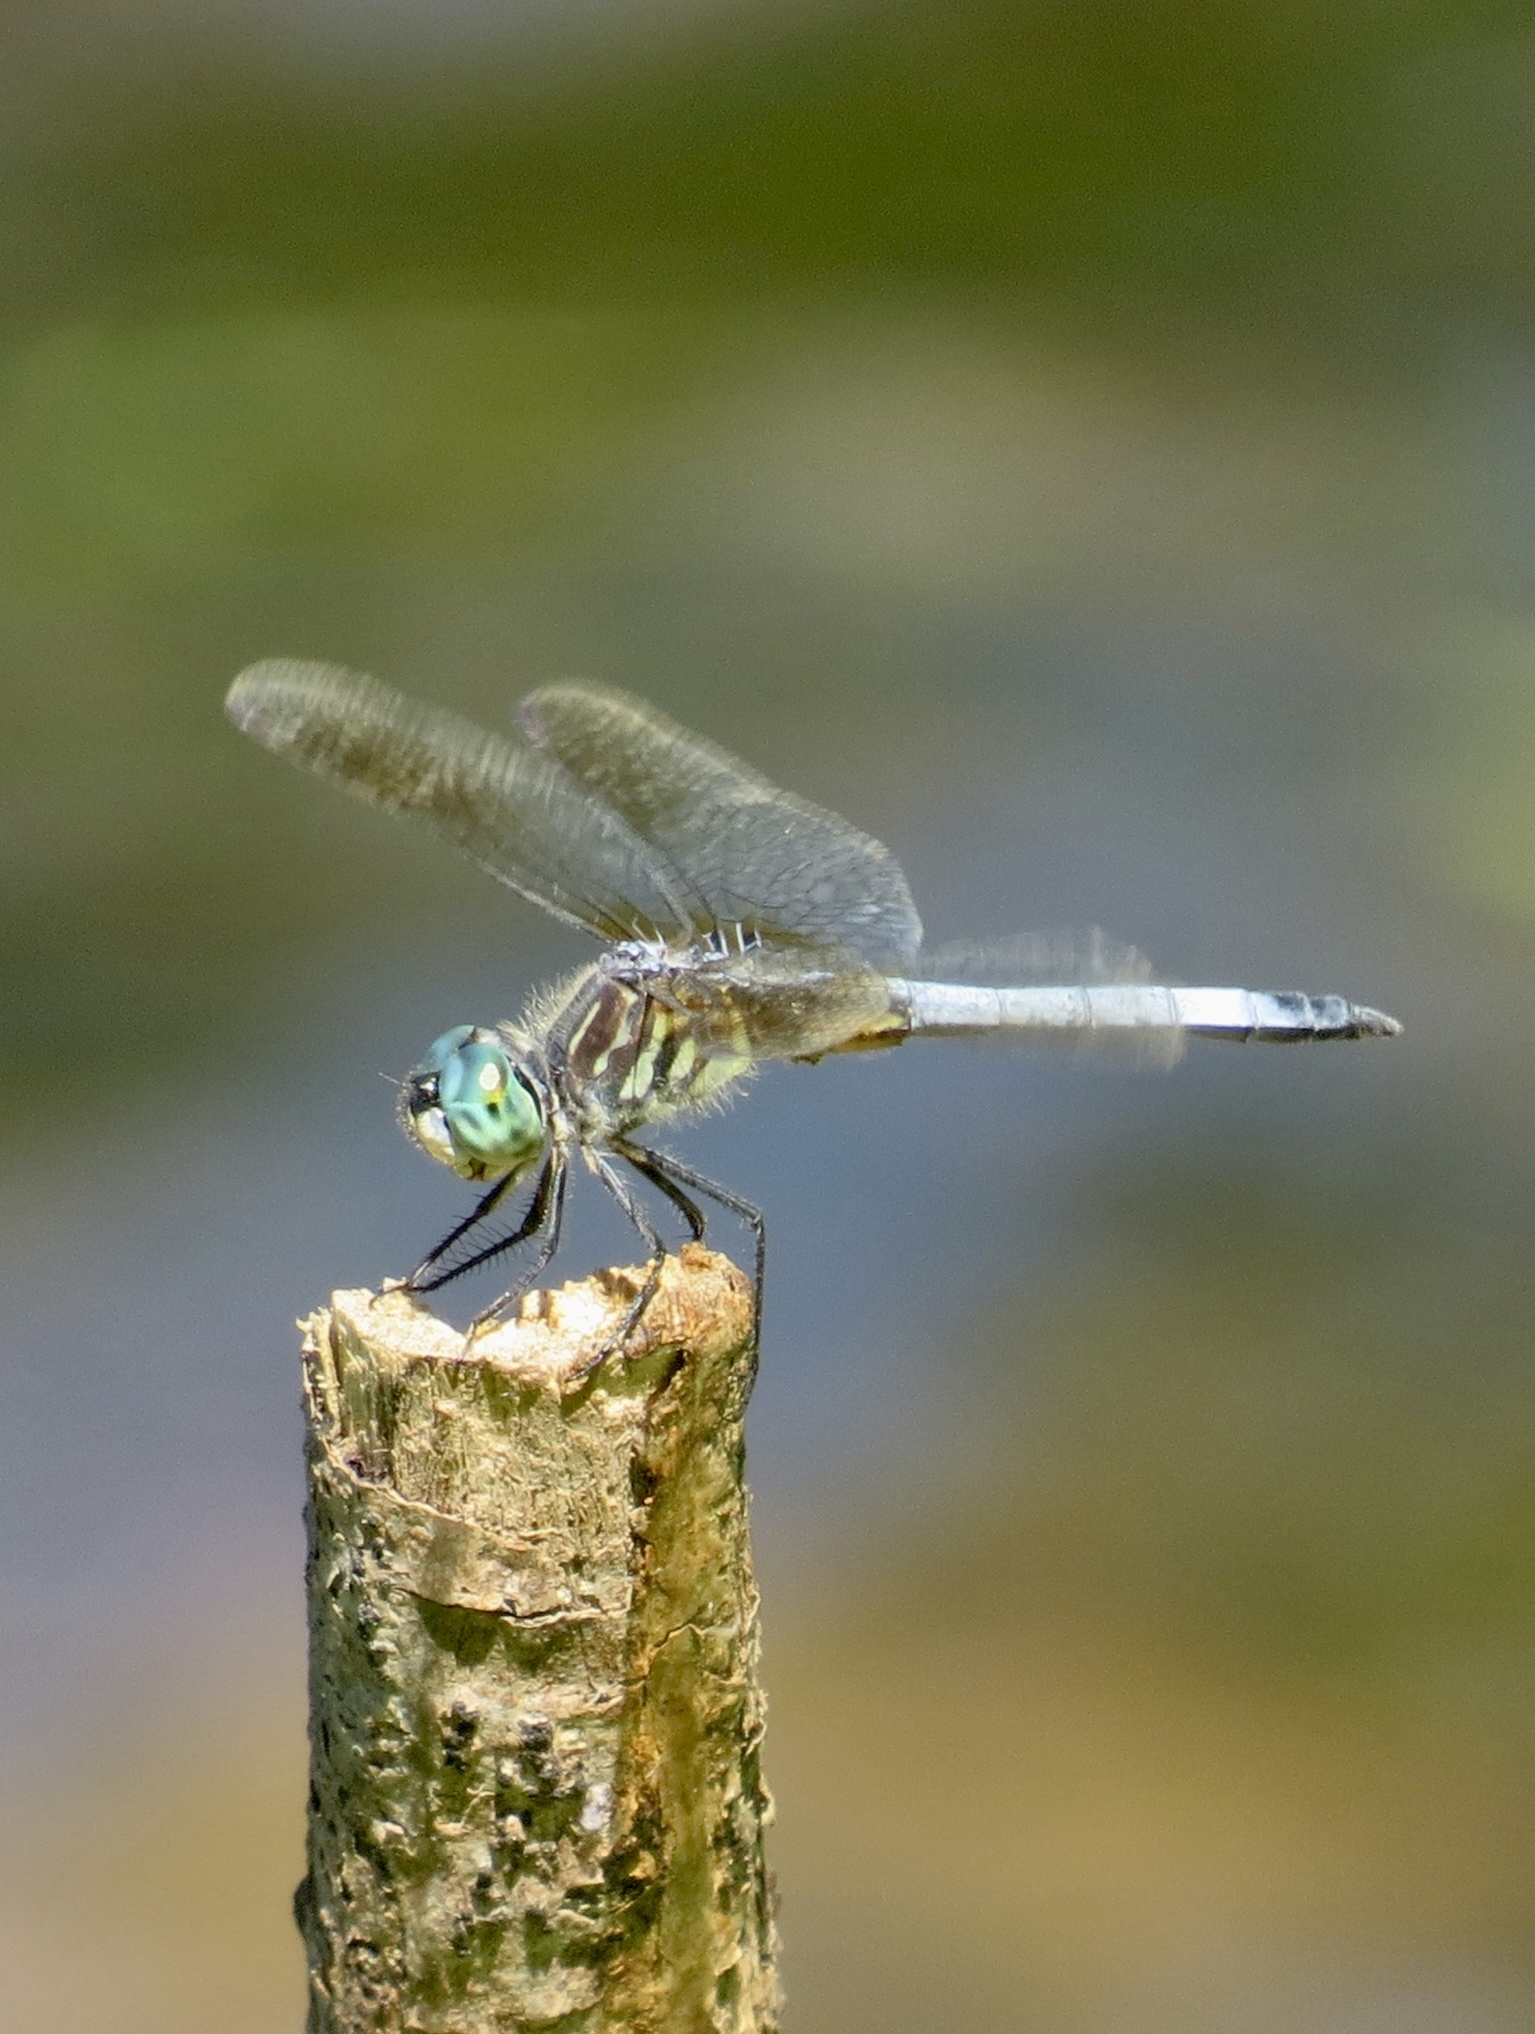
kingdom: Animalia
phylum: Arthropoda
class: Insecta
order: Odonata
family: Libellulidae
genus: Pachydiplax
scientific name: Pachydiplax longipennis
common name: Blue dasher
